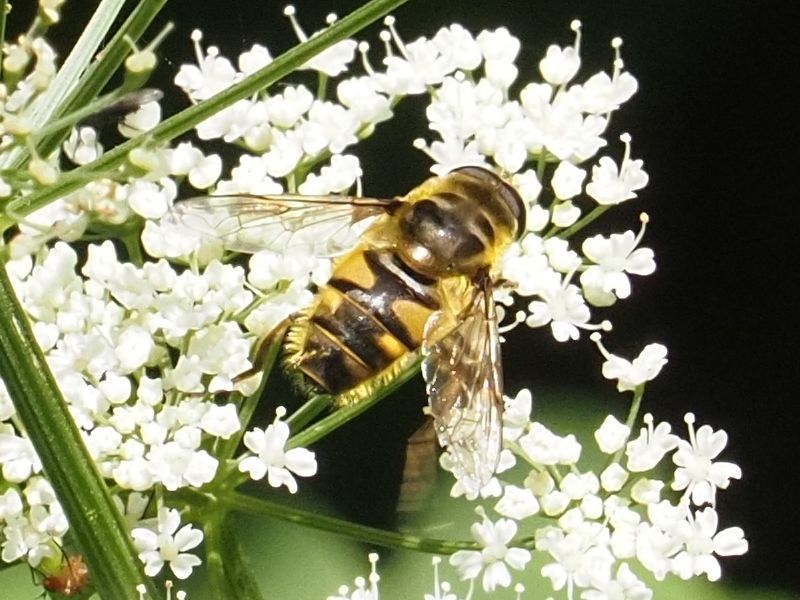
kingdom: Animalia
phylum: Arthropoda
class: Insecta
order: Diptera
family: Syrphidae
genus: Myathropa
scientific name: Myathropa florea
